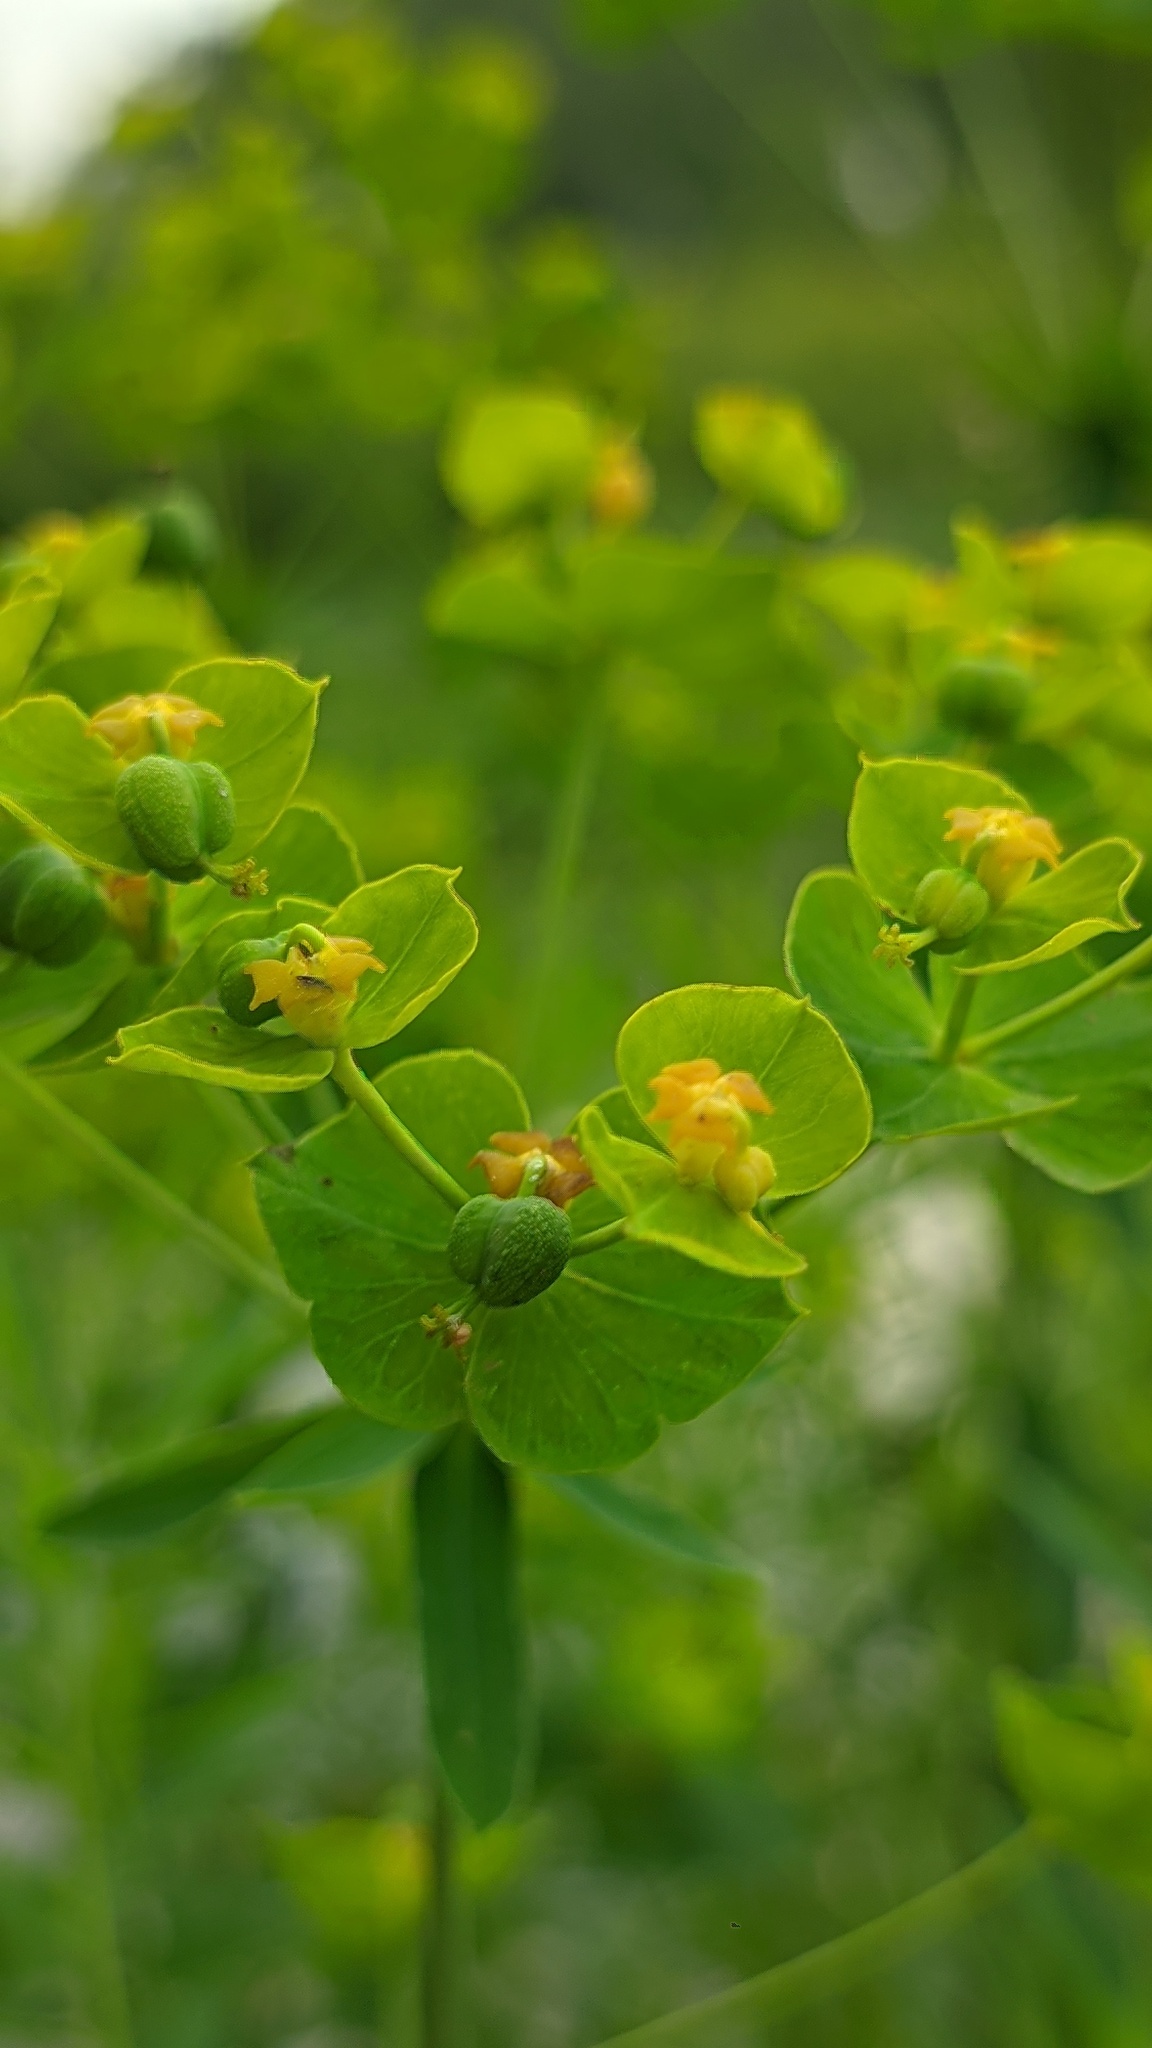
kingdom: Plantae
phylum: Tracheophyta
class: Magnoliopsida
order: Malpighiales
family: Euphorbiaceae
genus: Euphorbia
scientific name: Euphorbia virgata
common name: Leafy spurge
